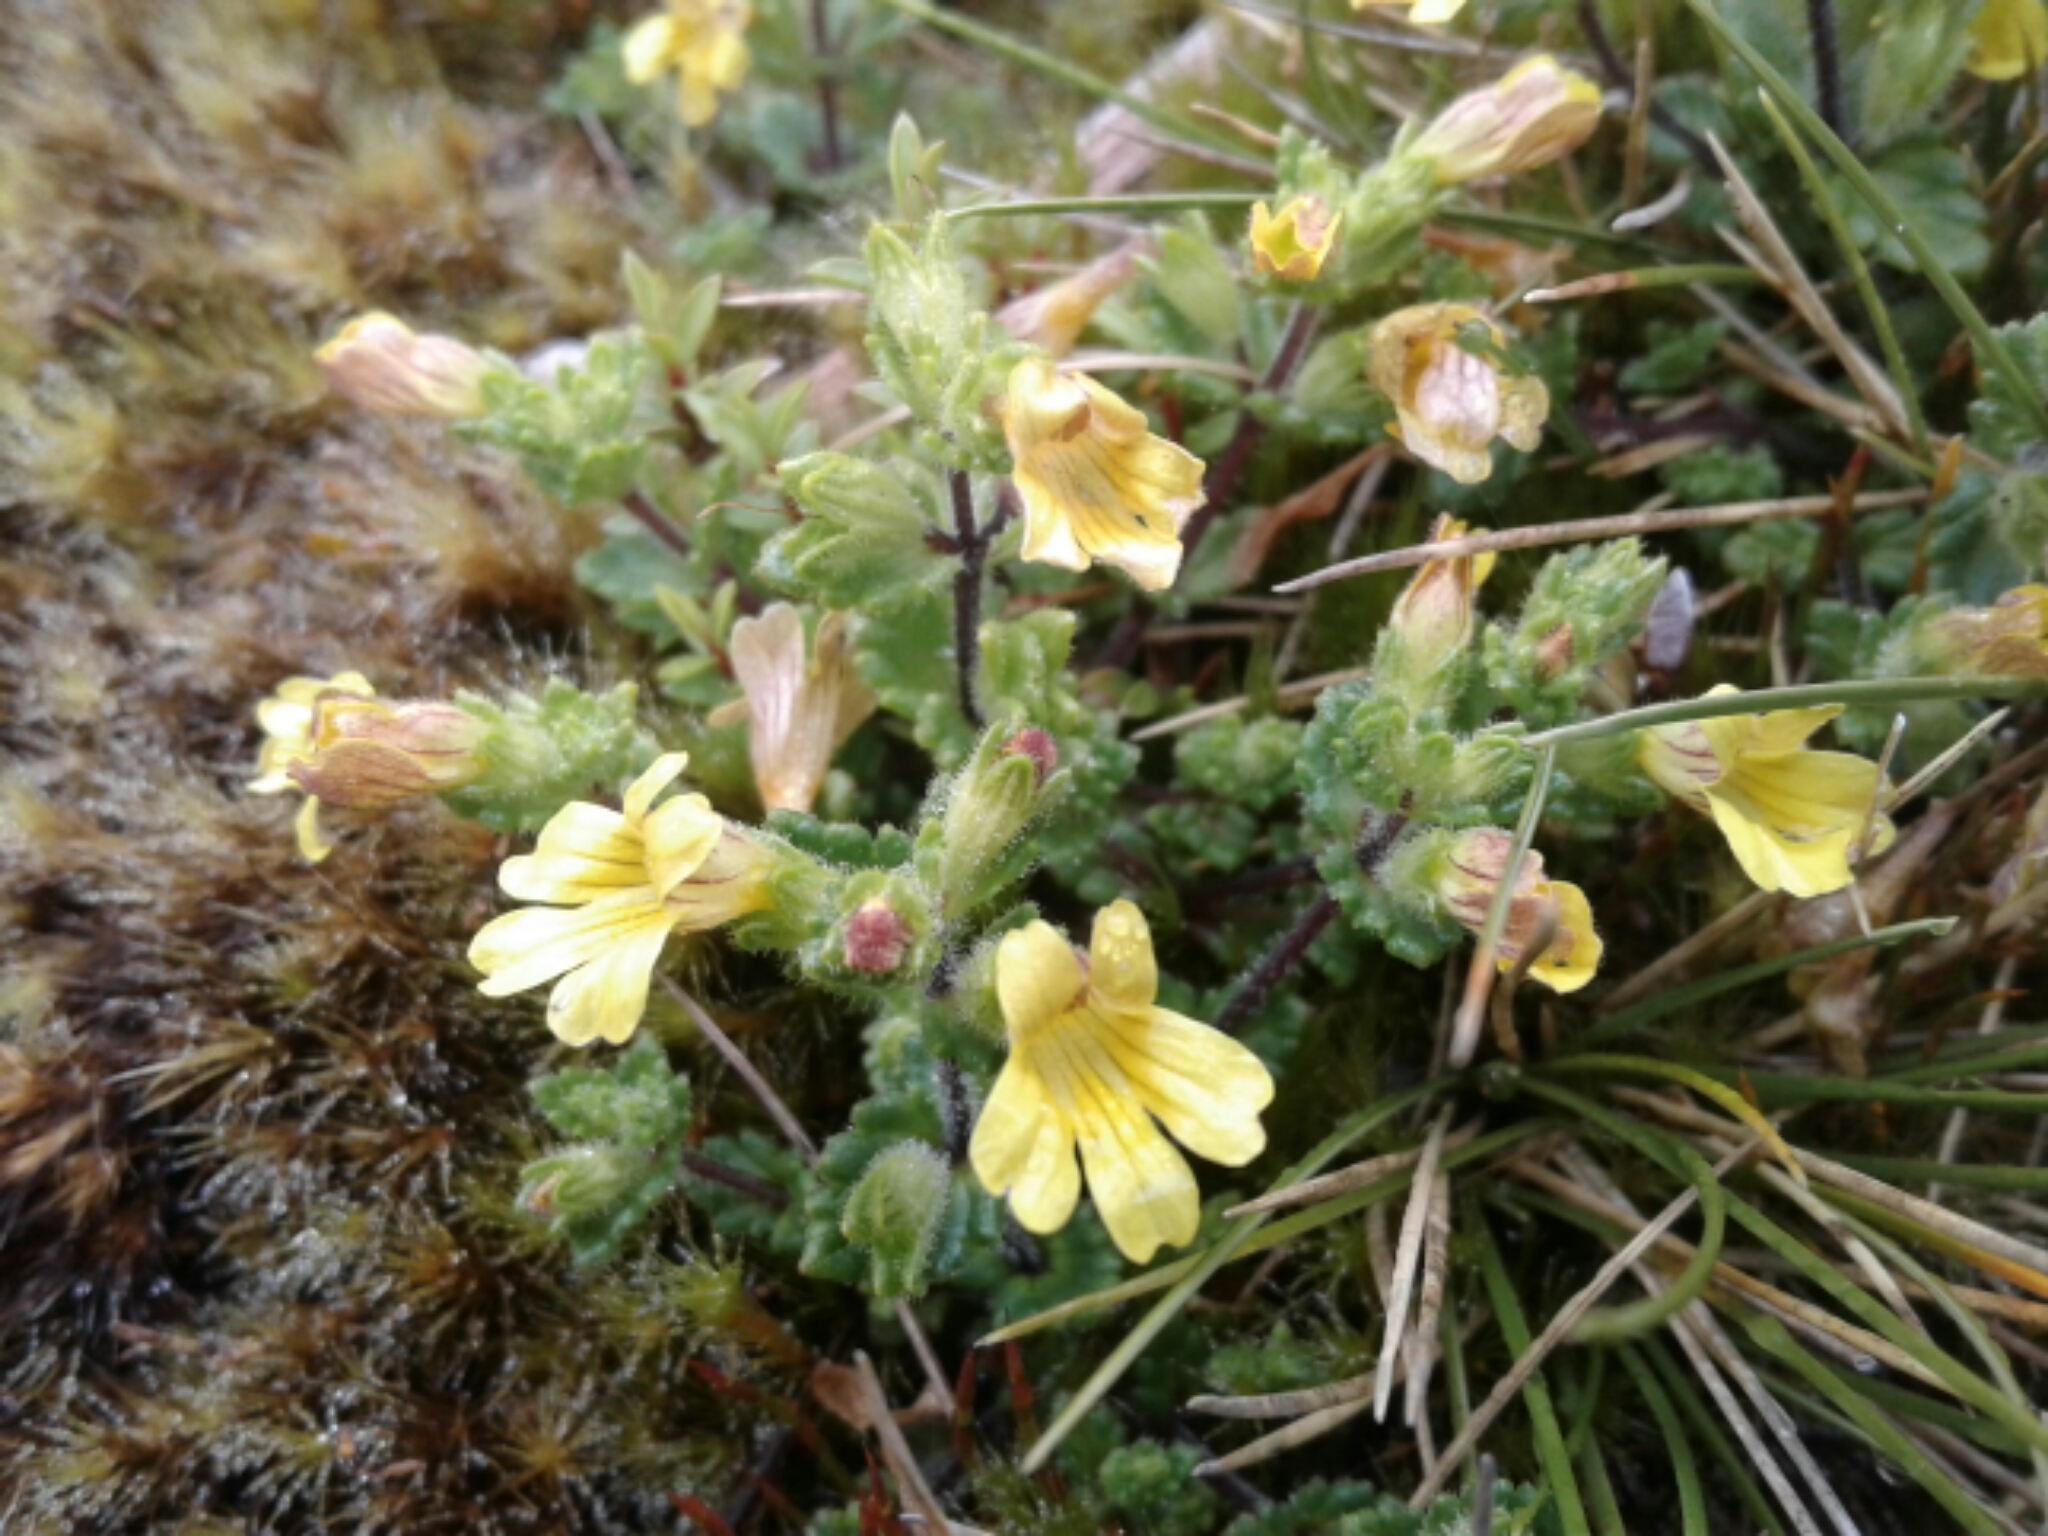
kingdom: Plantae
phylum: Tracheophyta
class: Magnoliopsida
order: Lamiales
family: Orobanchaceae
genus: Euphrasia
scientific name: Euphrasia cockayneana
